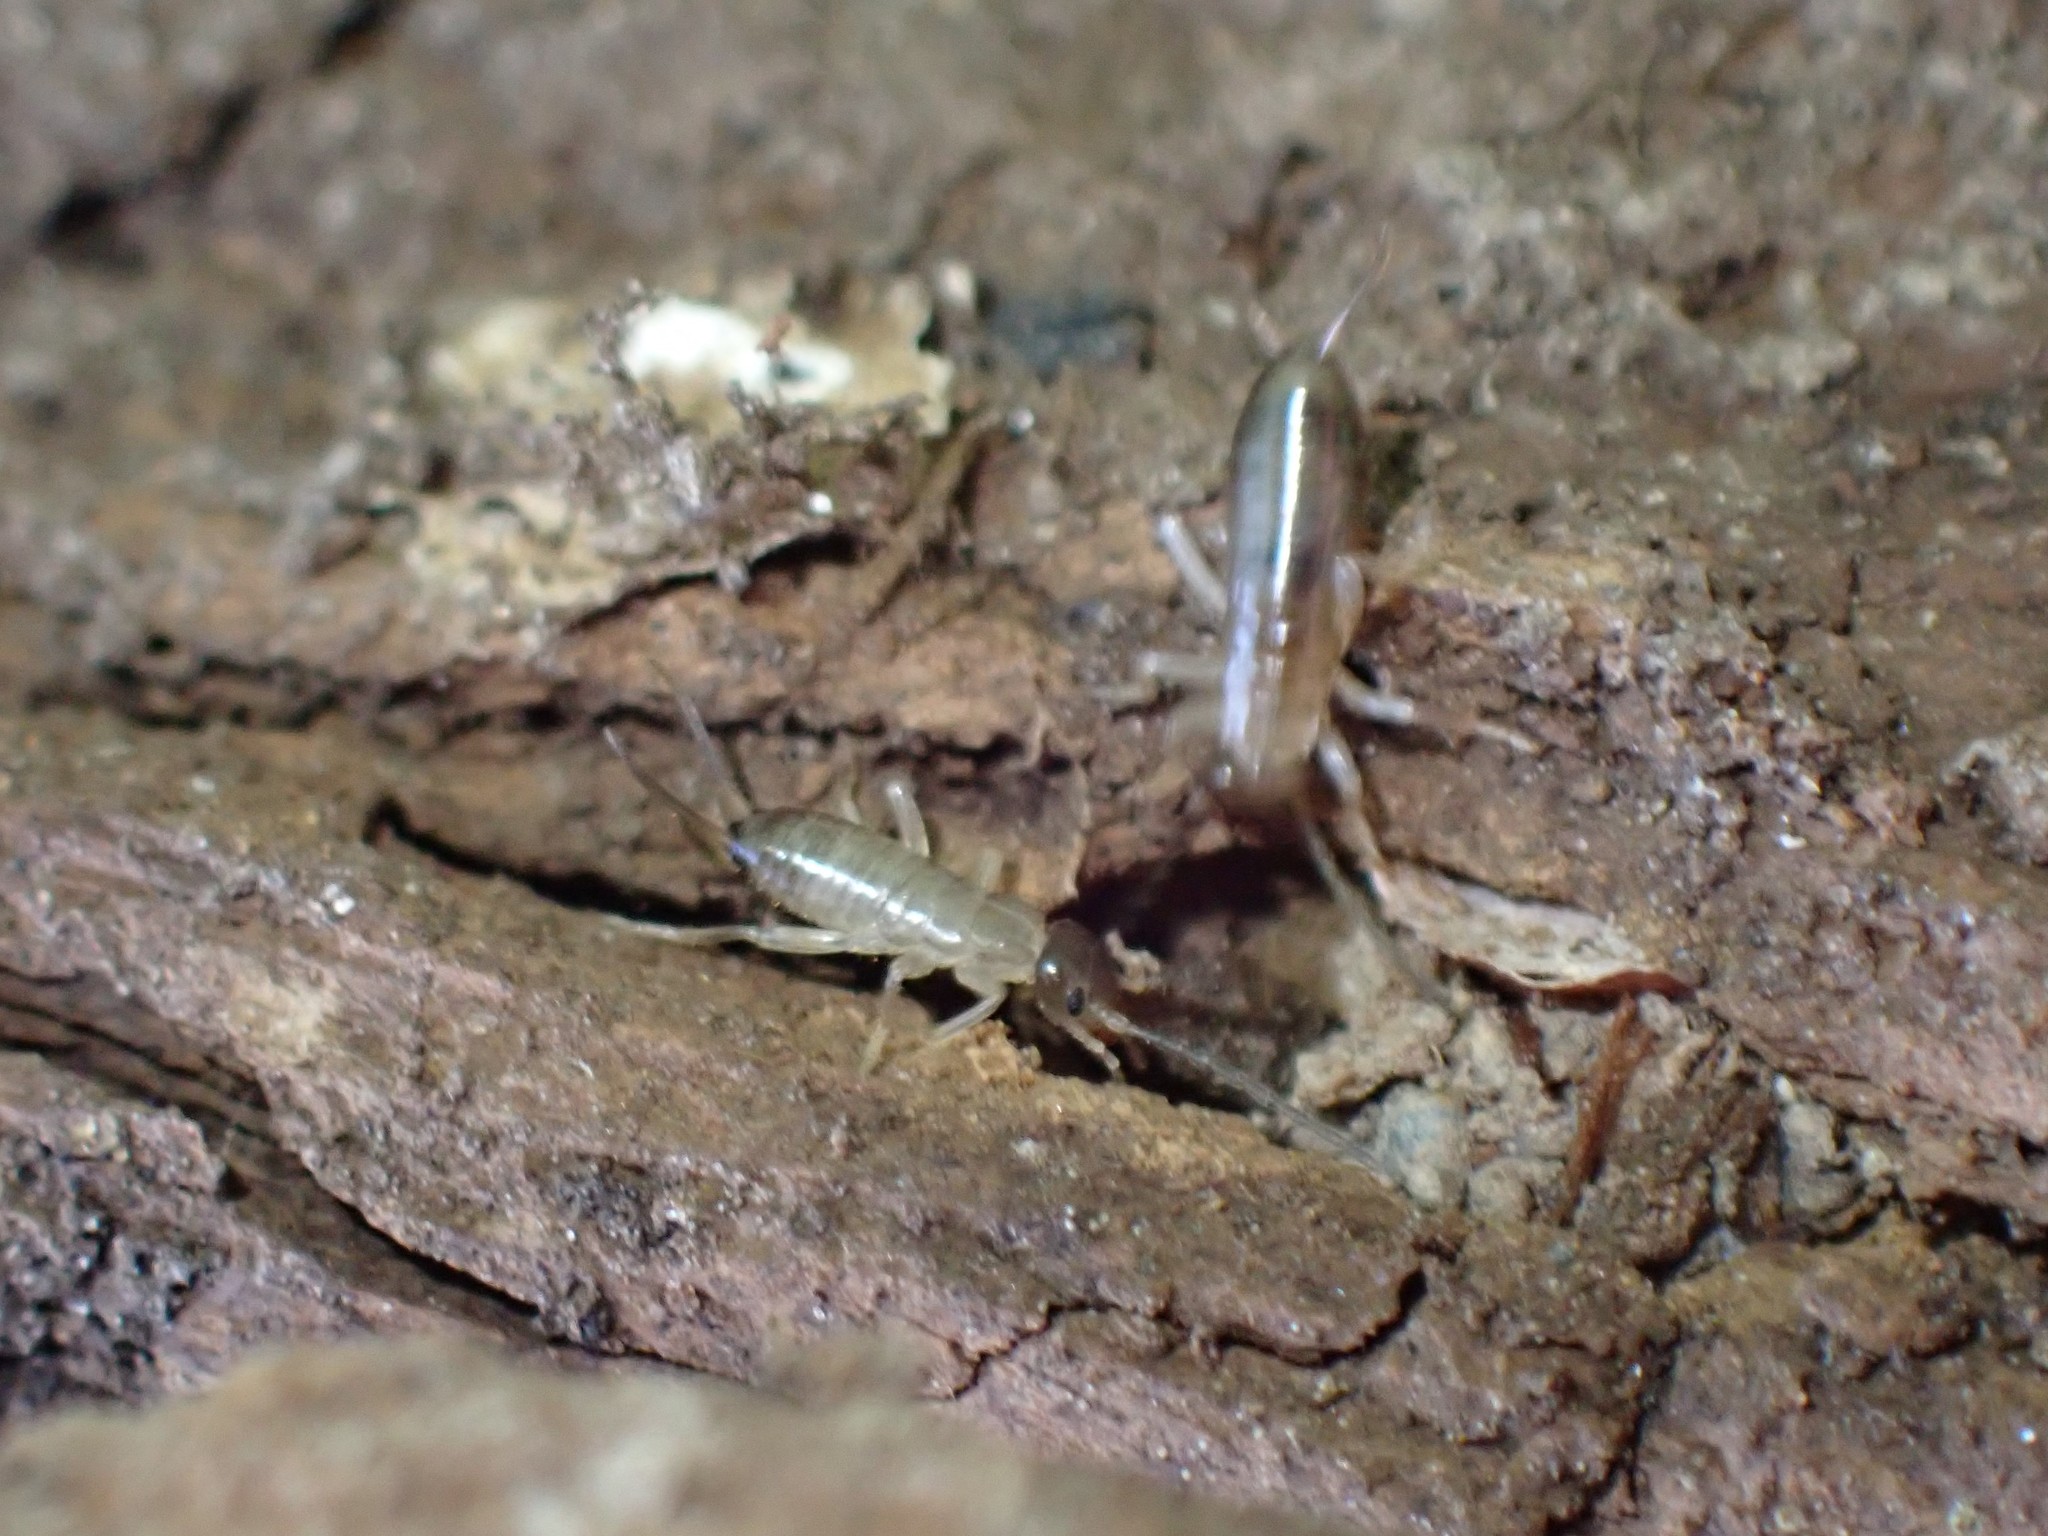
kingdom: Animalia
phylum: Arthropoda
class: Insecta
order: Dermaptera
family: Forficulidae
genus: Forficula
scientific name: Forficula
